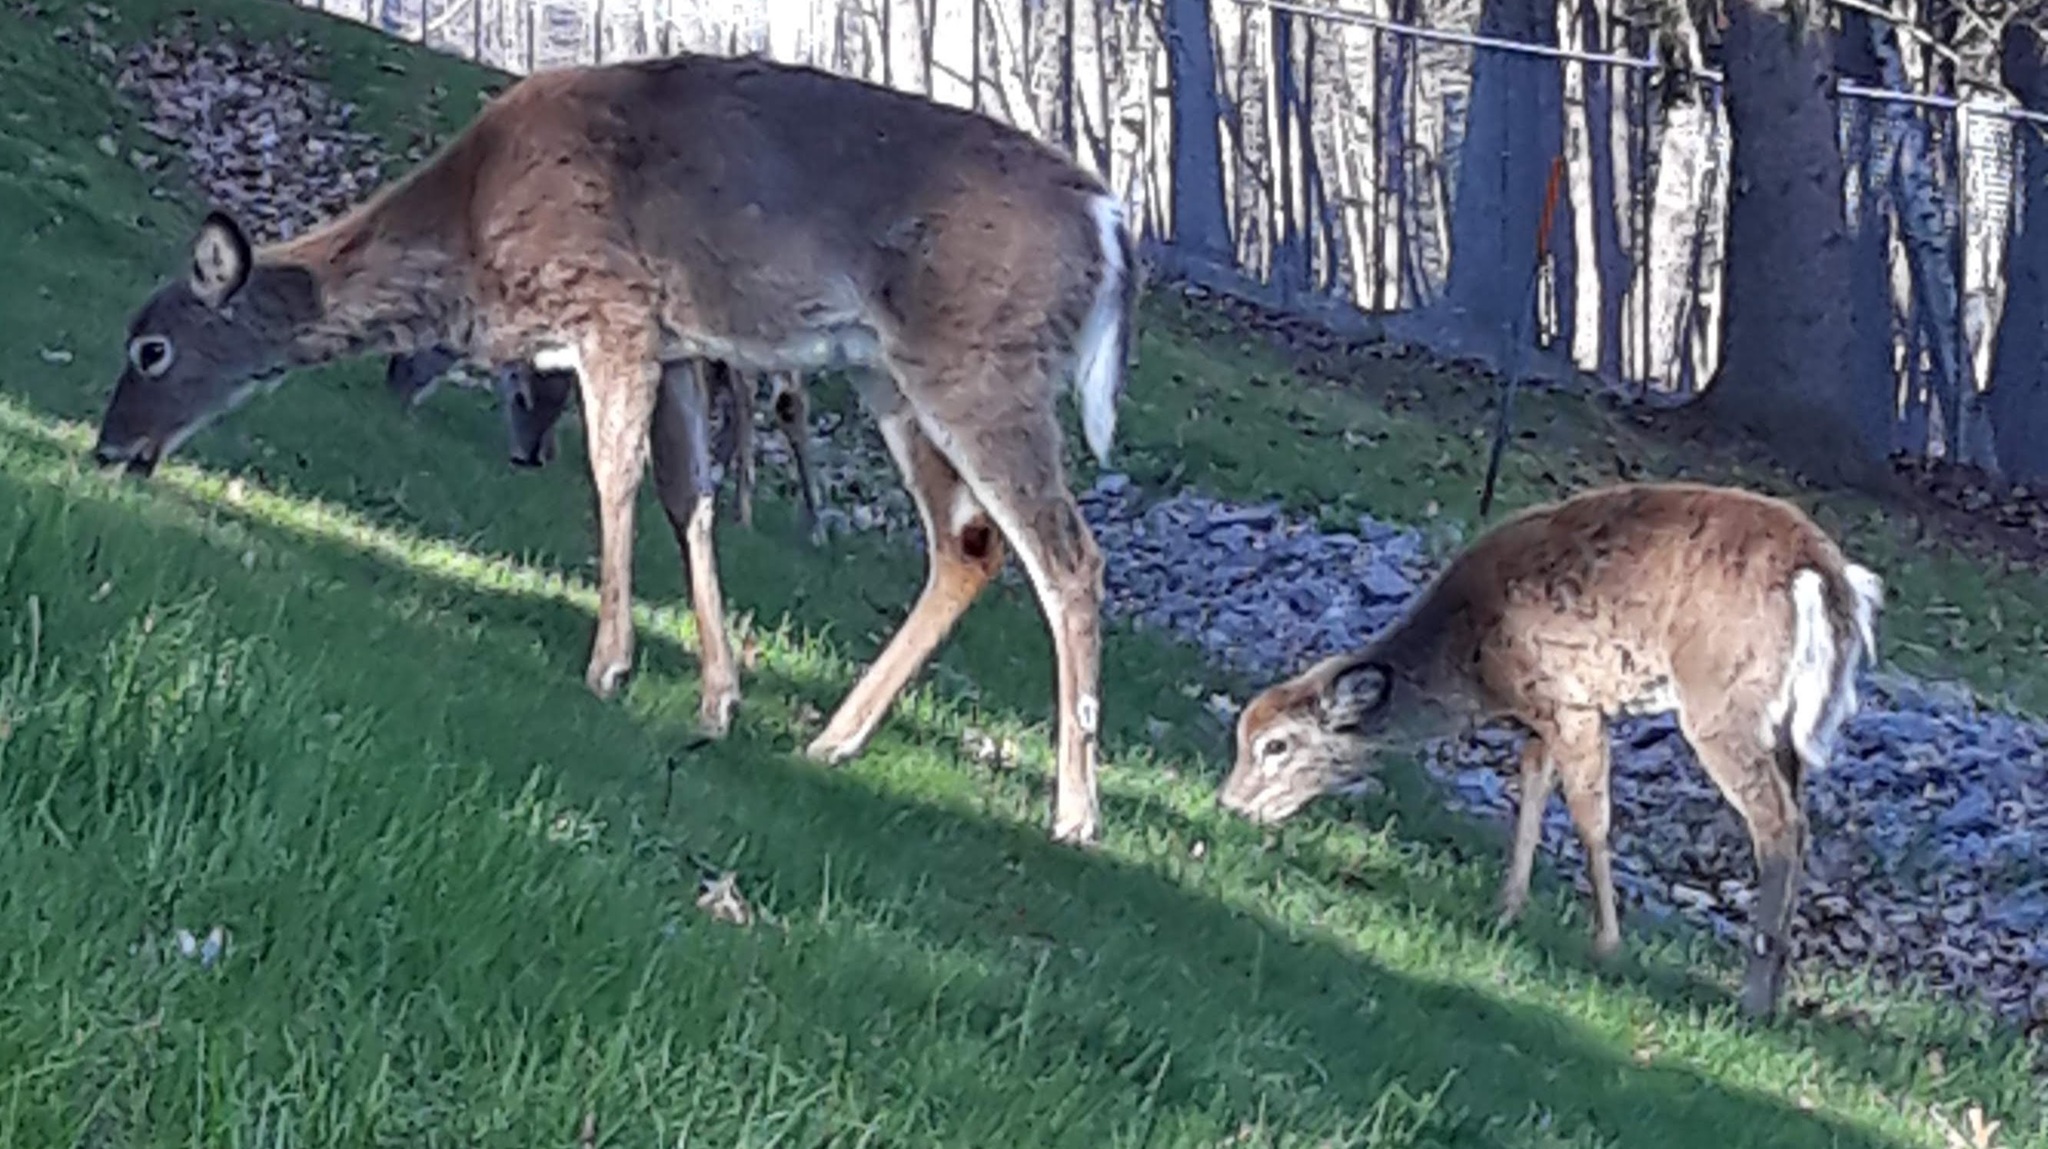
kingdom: Animalia
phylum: Chordata
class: Mammalia
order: Artiodactyla
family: Cervidae
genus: Odocoileus
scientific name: Odocoileus virginianus
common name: White-tailed deer
